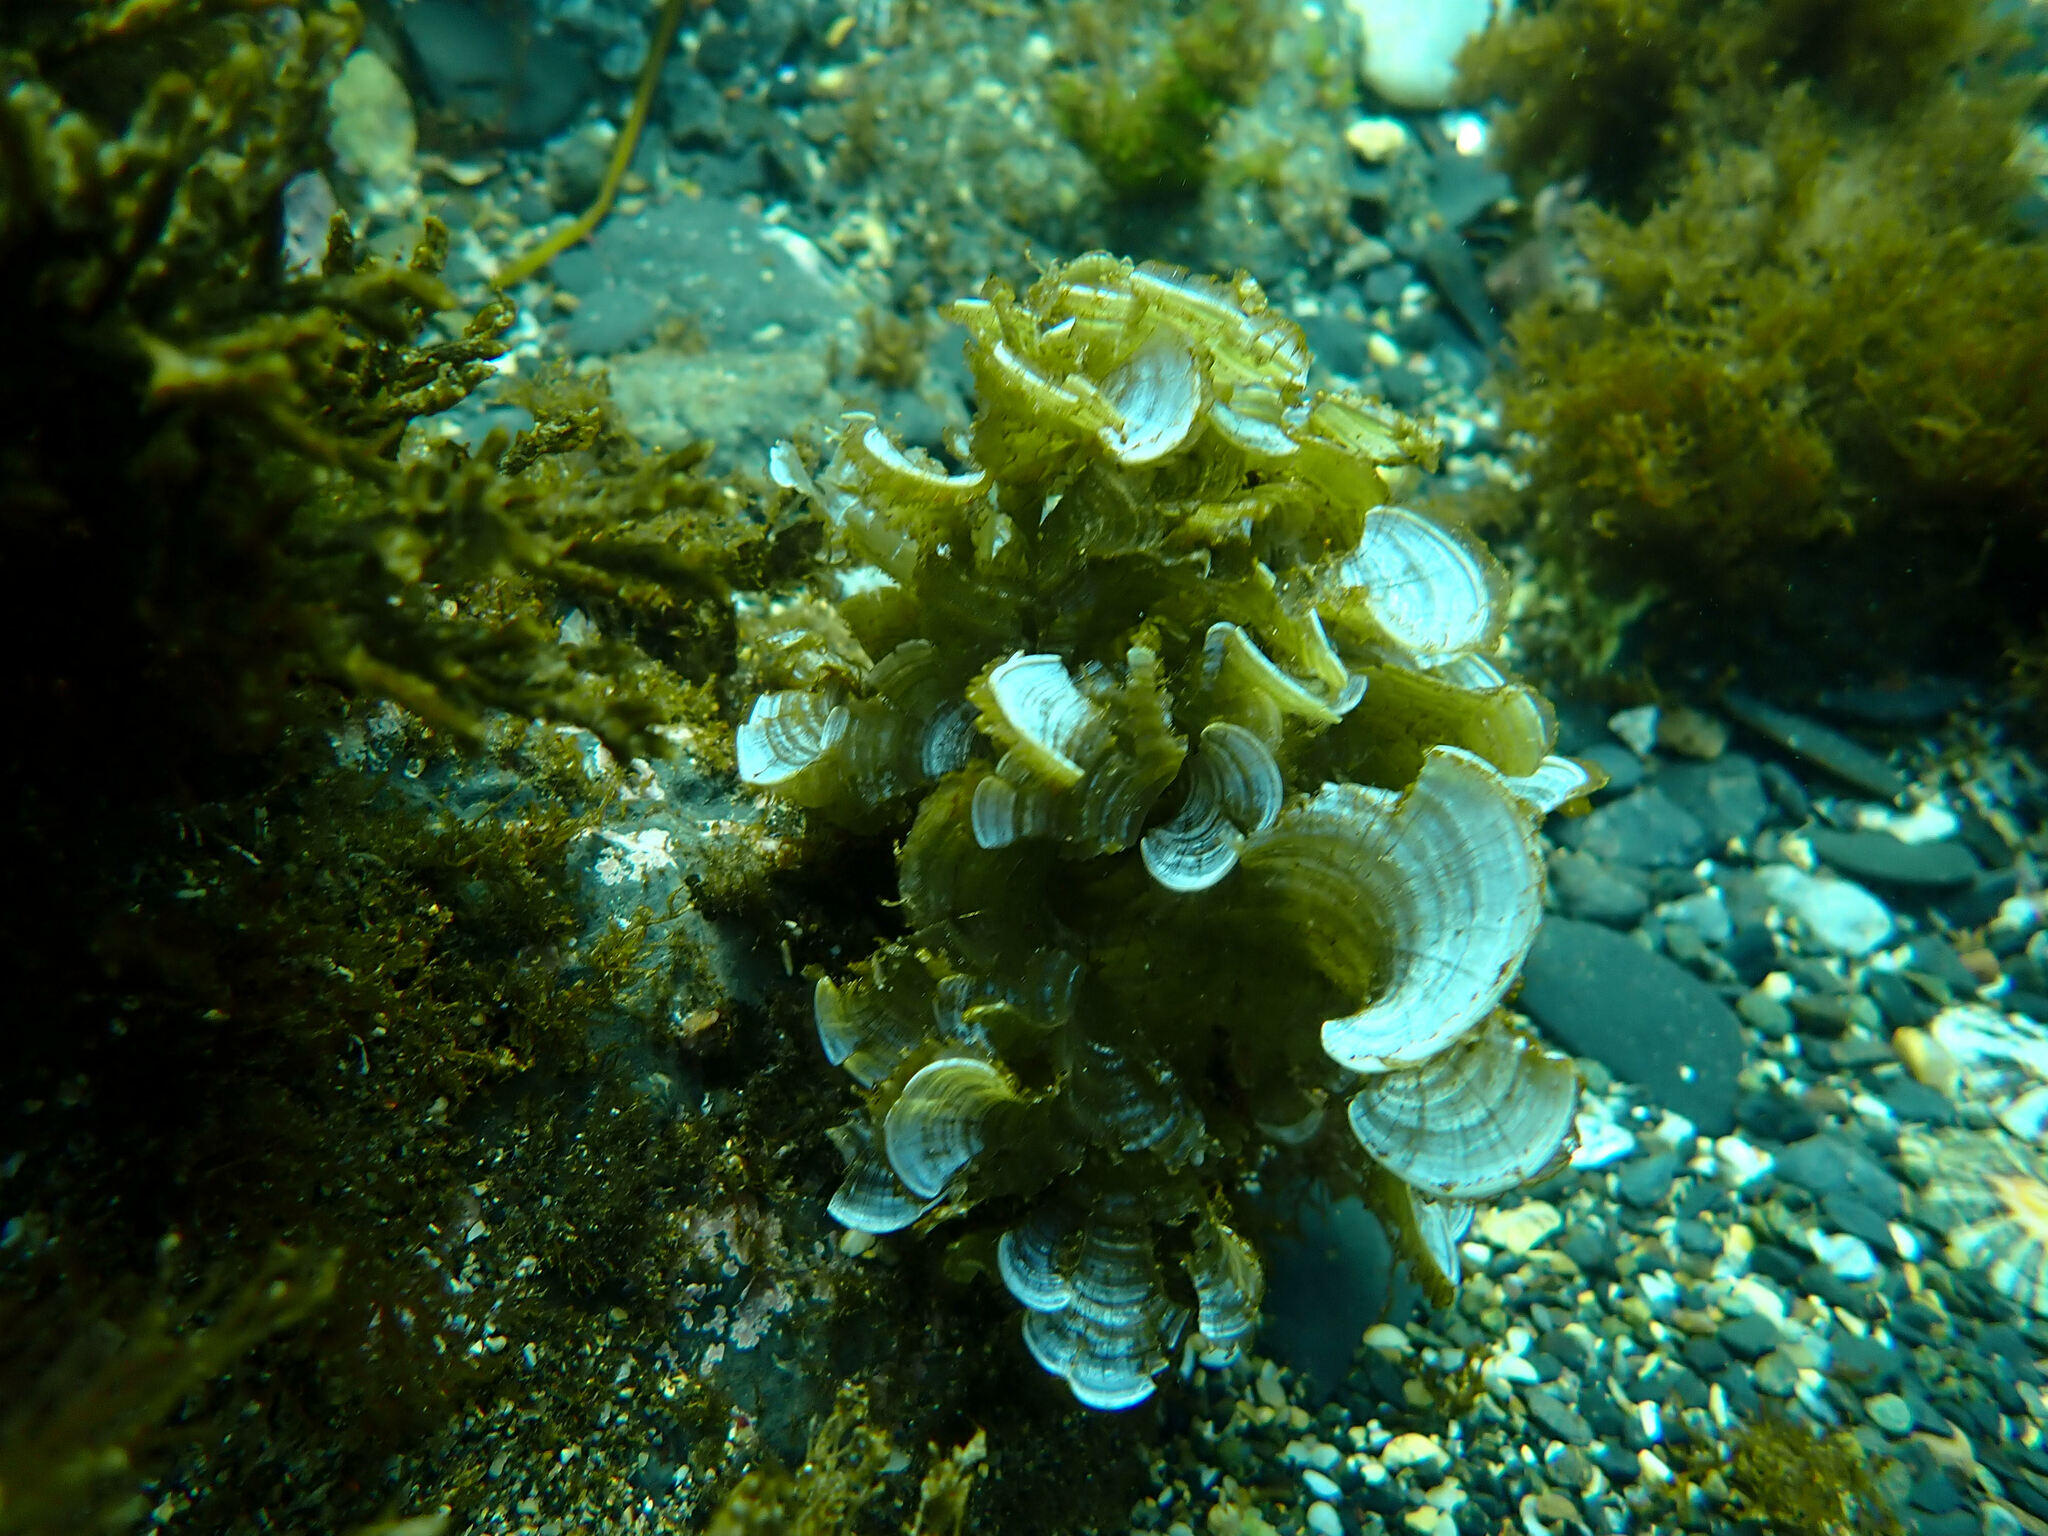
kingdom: Chromista
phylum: Ochrophyta
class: Phaeophyceae
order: Dictyotales
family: Dictyotaceae
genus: Padina
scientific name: Padina pavonica
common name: Turkey feather alga
